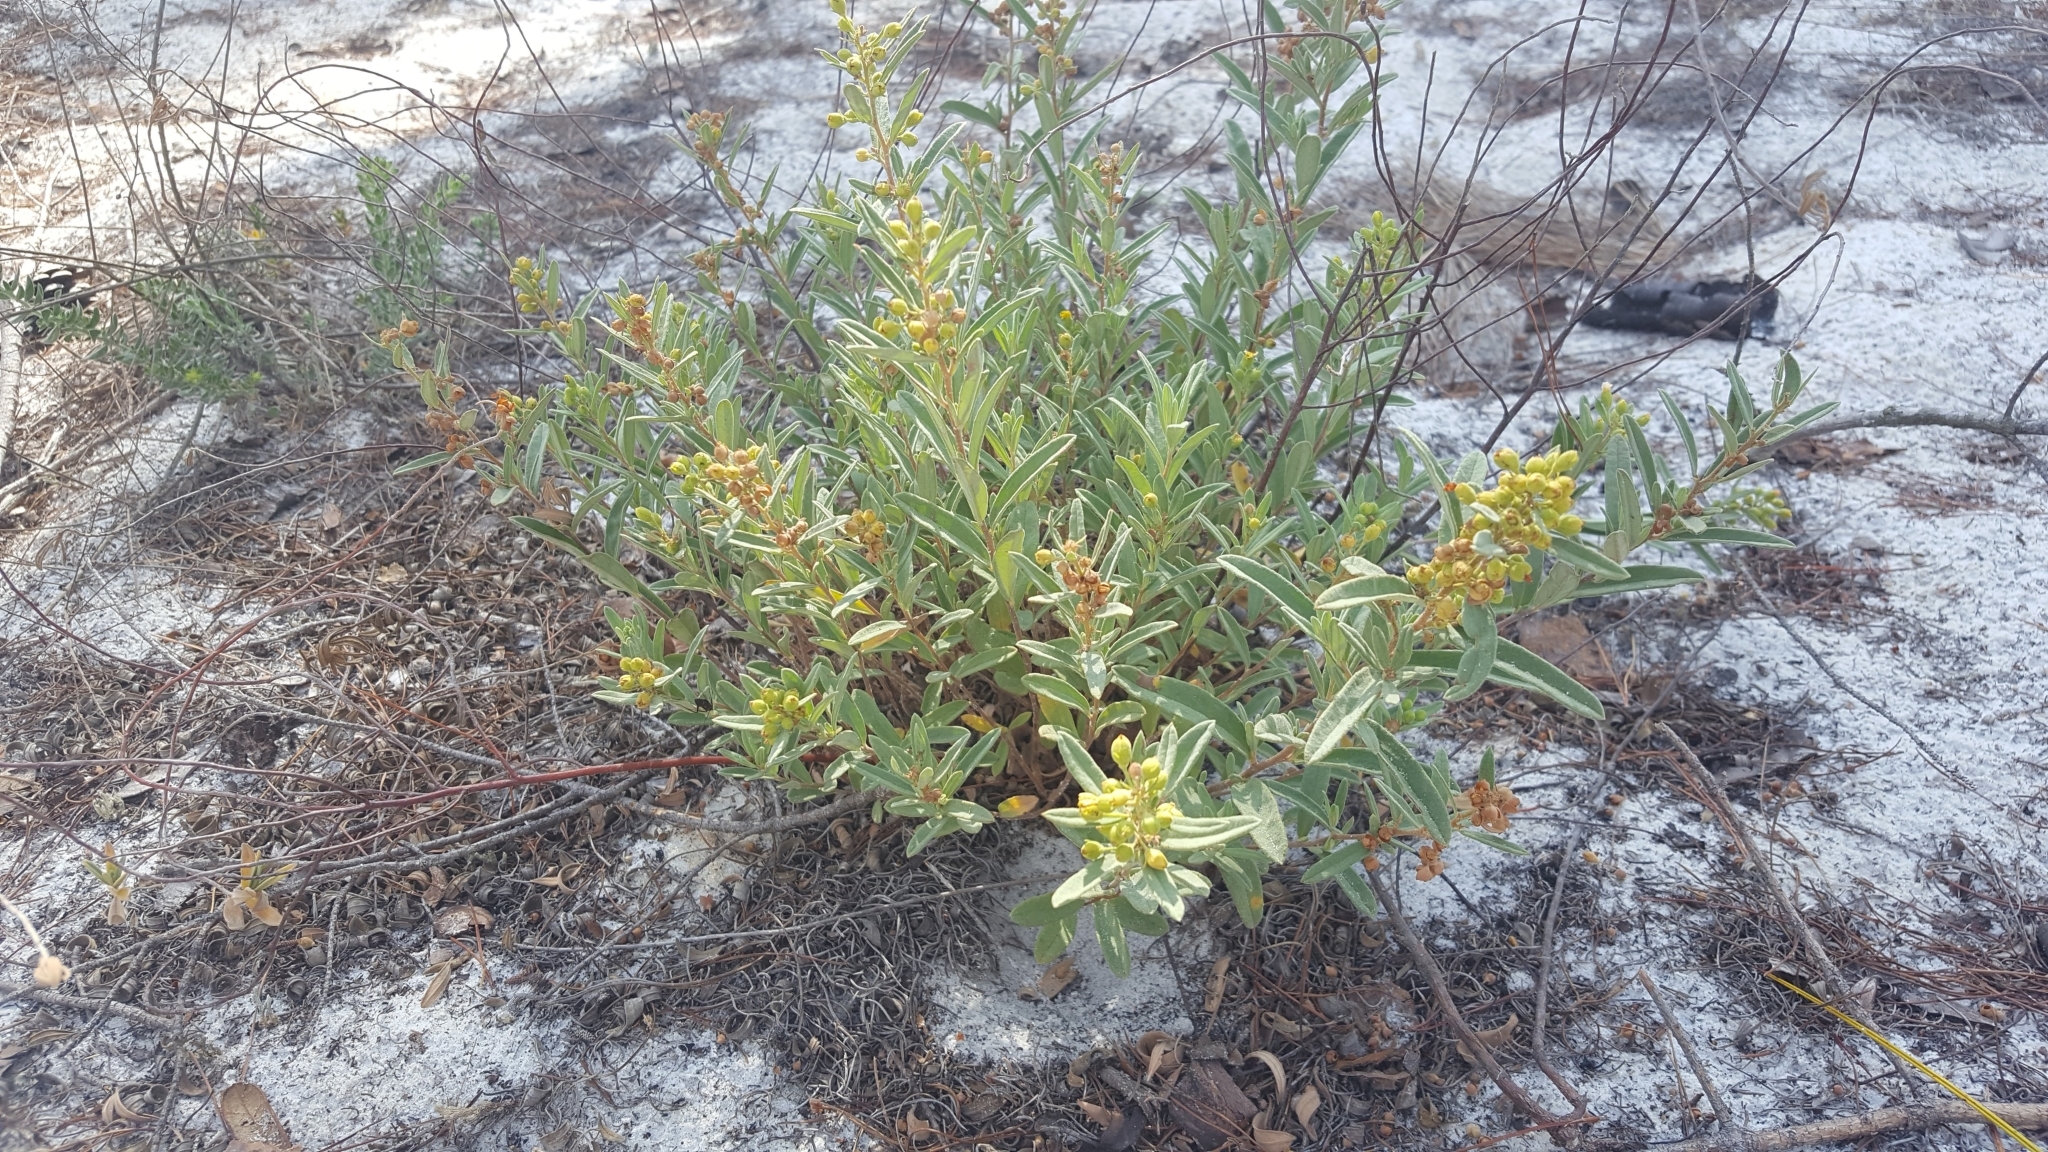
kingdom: Plantae
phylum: Tracheophyta
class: Magnoliopsida
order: Malvales
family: Cistaceae
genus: Crocanthemum
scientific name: Crocanthemum nashii
